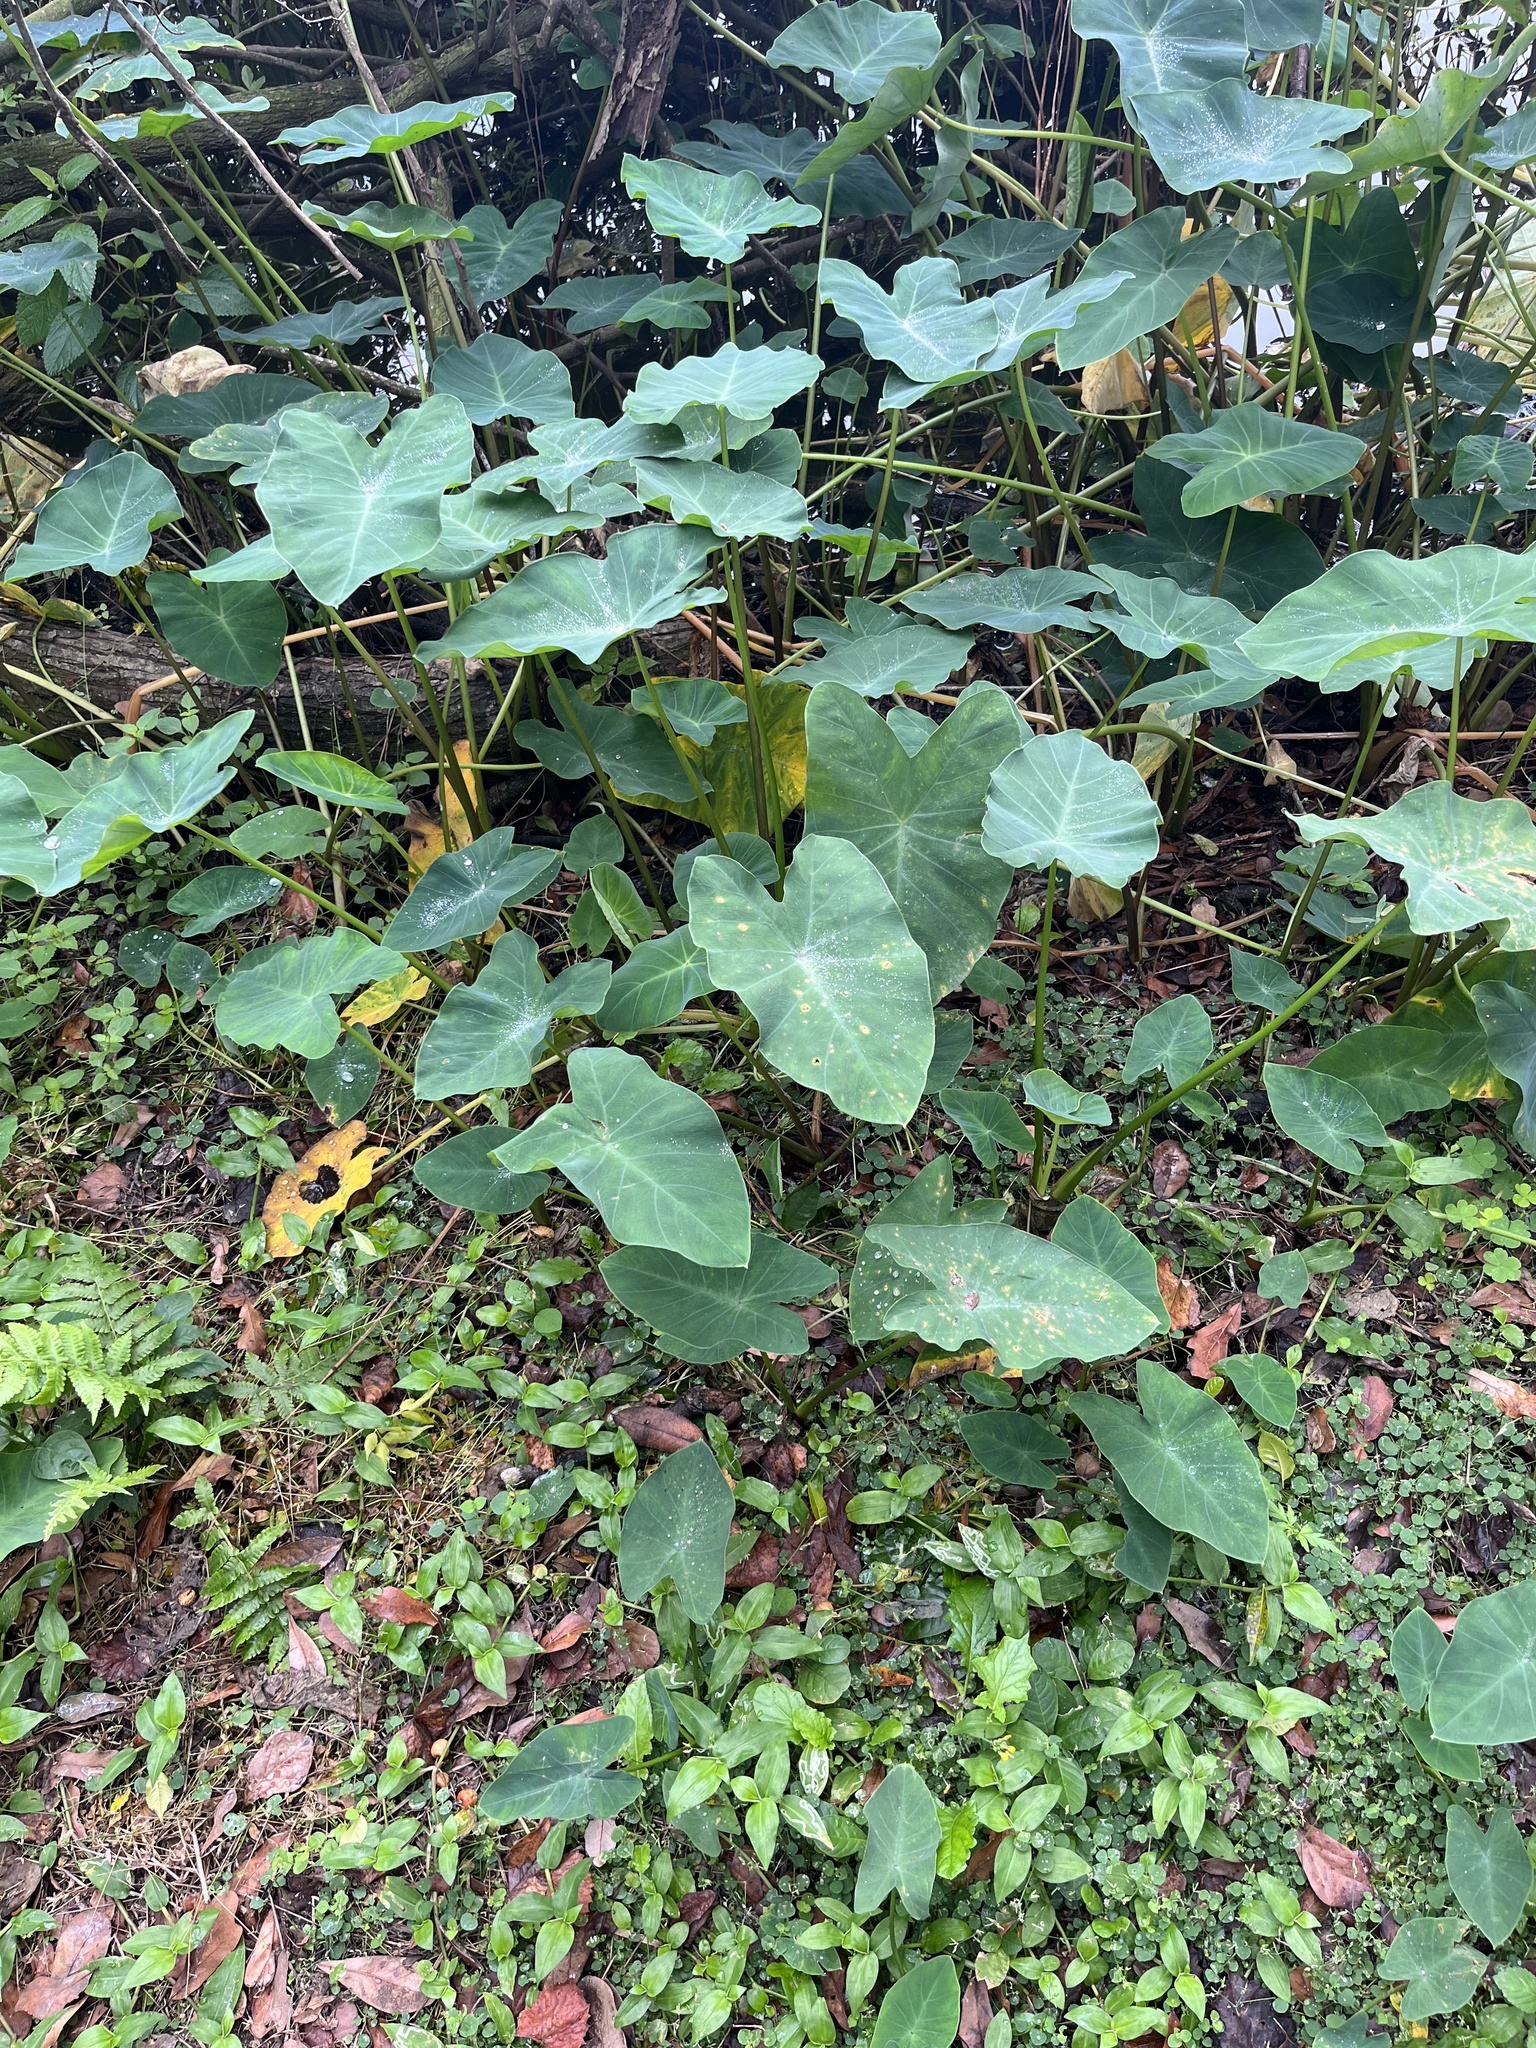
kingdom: Plantae
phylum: Tracheophyta
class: Liliopsida
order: Alismatales
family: Araceae
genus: Colocasia
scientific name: Colocasia esculenta
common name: Taro
